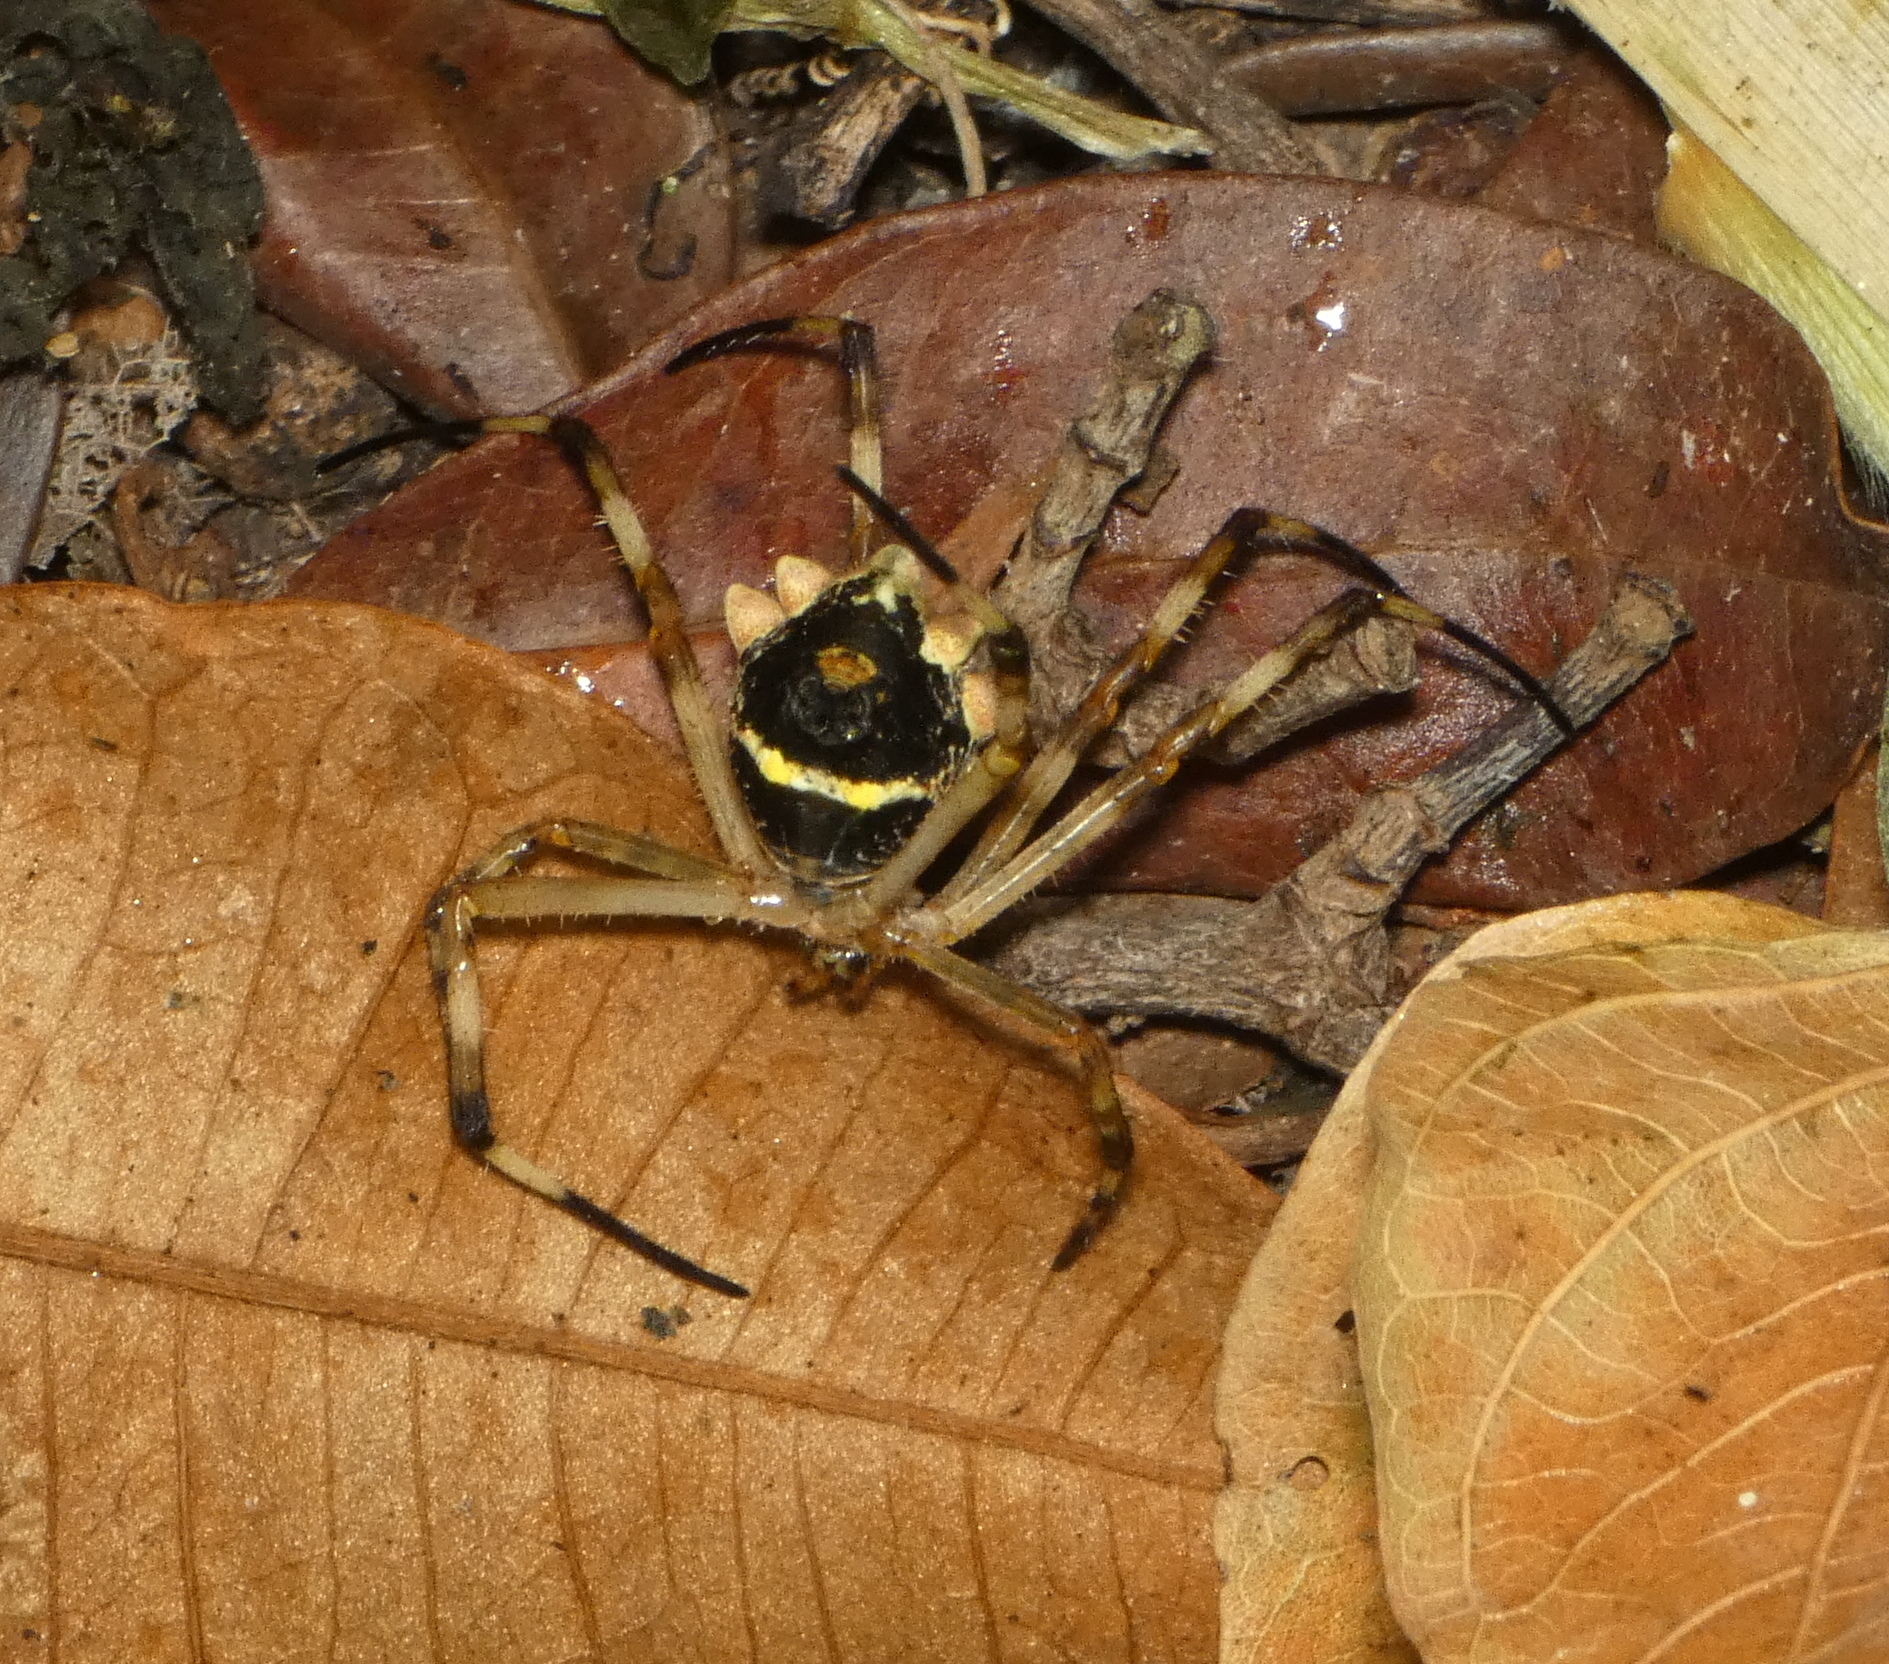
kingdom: Animalia
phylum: Arthropoda
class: Arachnida
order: Araneae
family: Araneidae
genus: Argiope
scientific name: Argiope argentata
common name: Orb weavers
